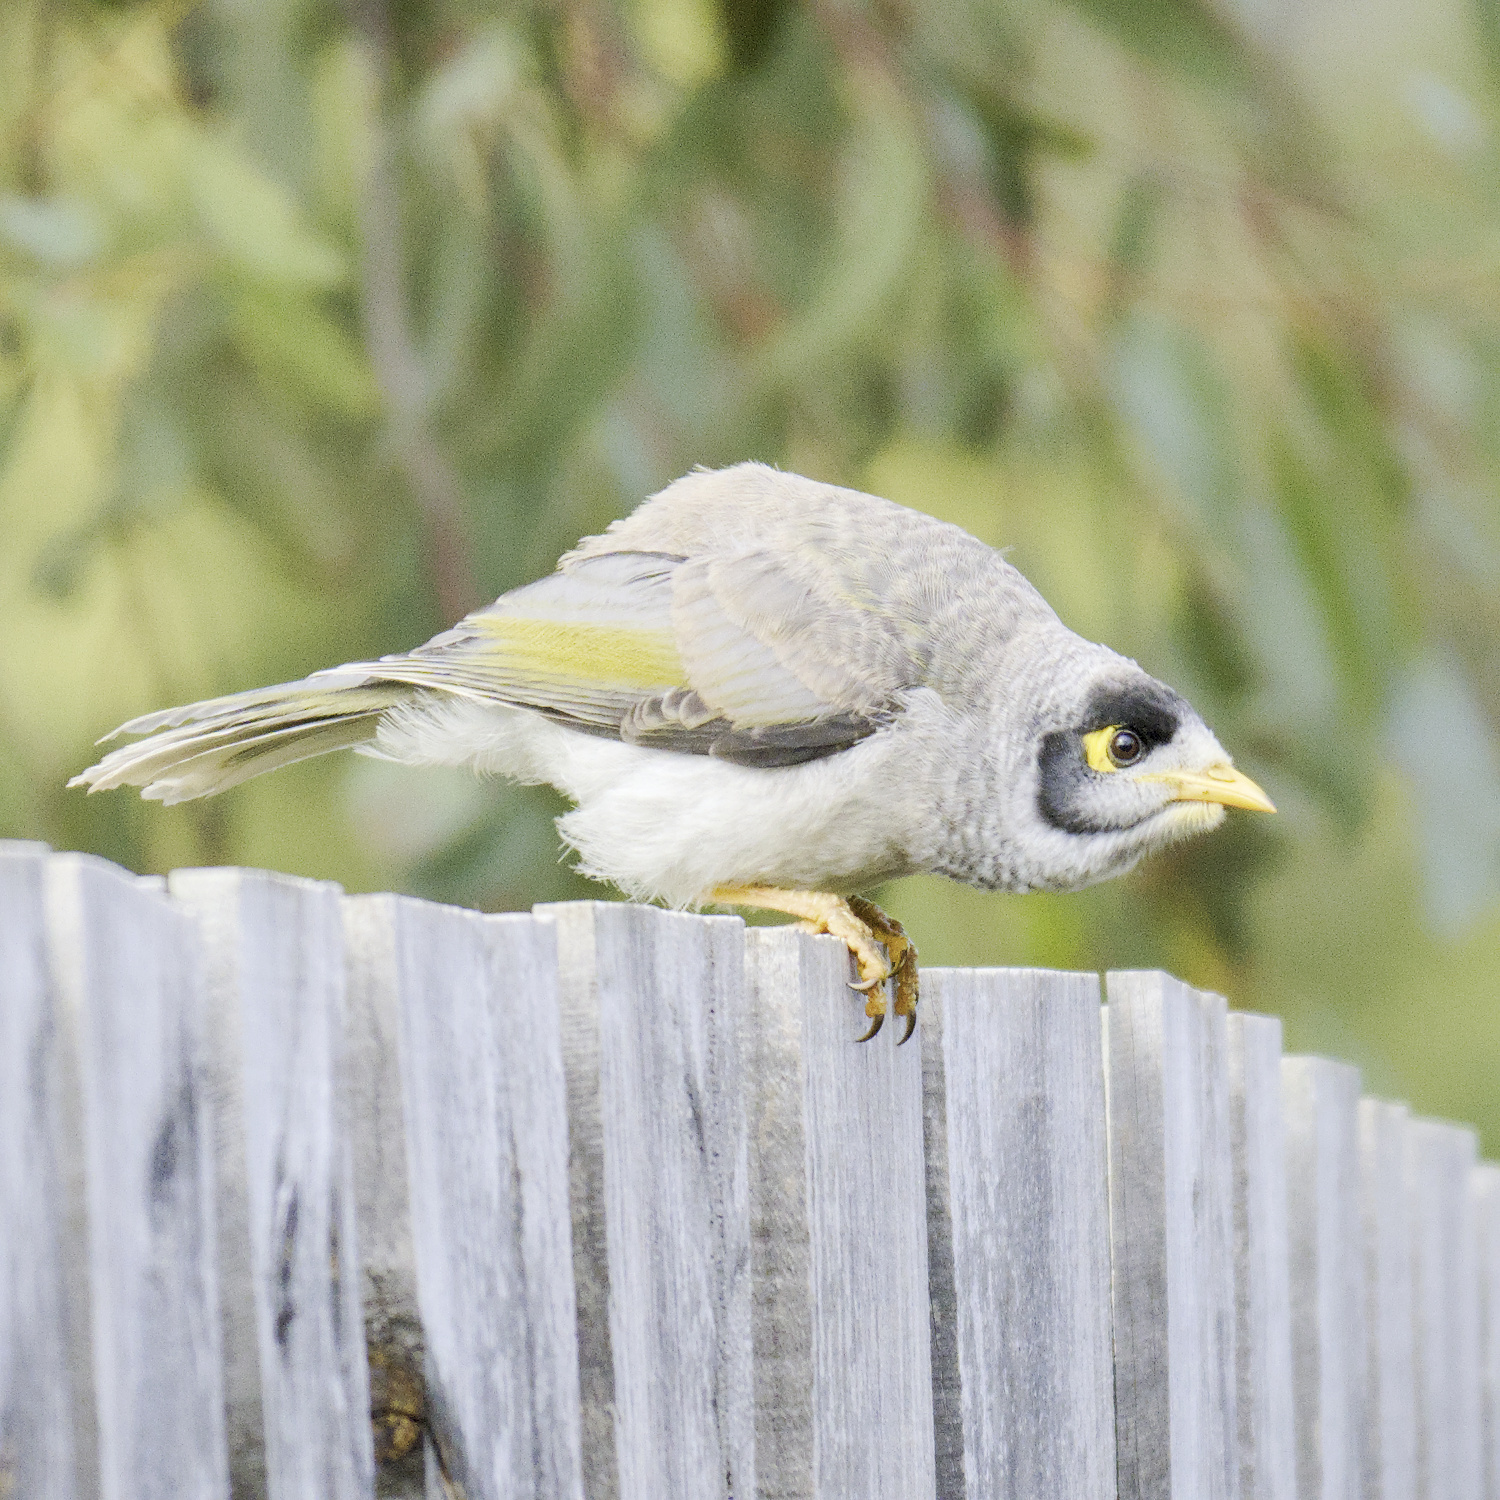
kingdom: Animalia
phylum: Chordata
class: Aves
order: Passeriformes
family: Meliphagidae
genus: Manorina
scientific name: Manorina melanocephala
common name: Noisy miner
